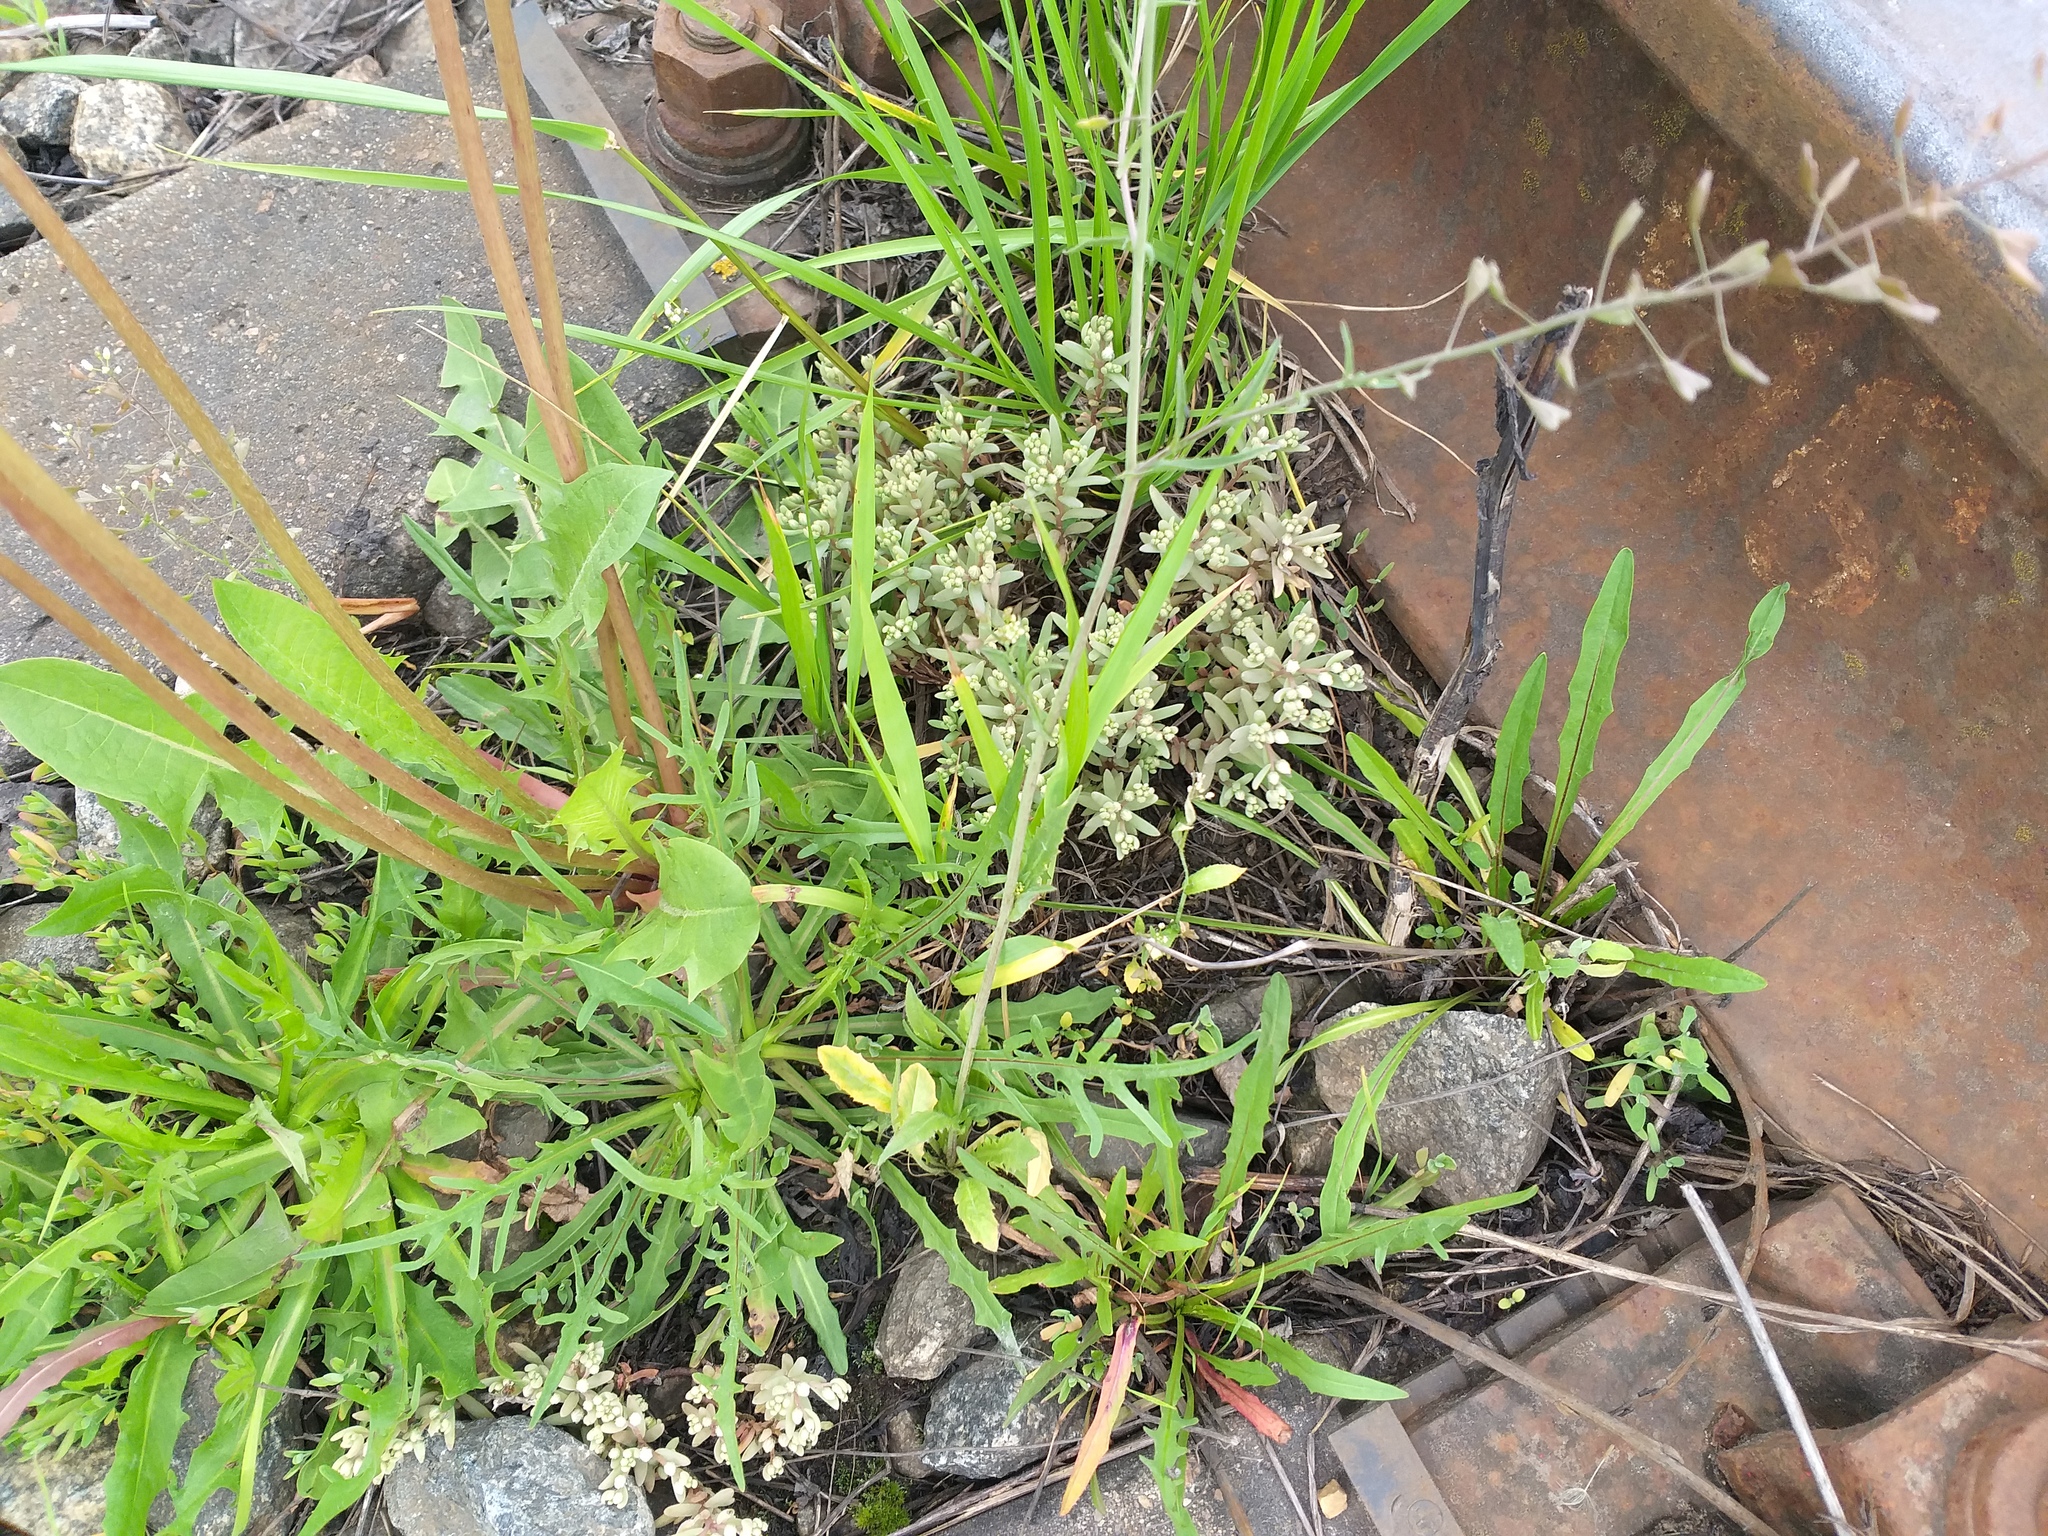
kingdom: Plantae
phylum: Tracheophyta
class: Magnoliopsida
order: Saxifragales
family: Crassulaceae
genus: Sedum
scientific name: Sedum hispanicum
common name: Spanish stonecrop
